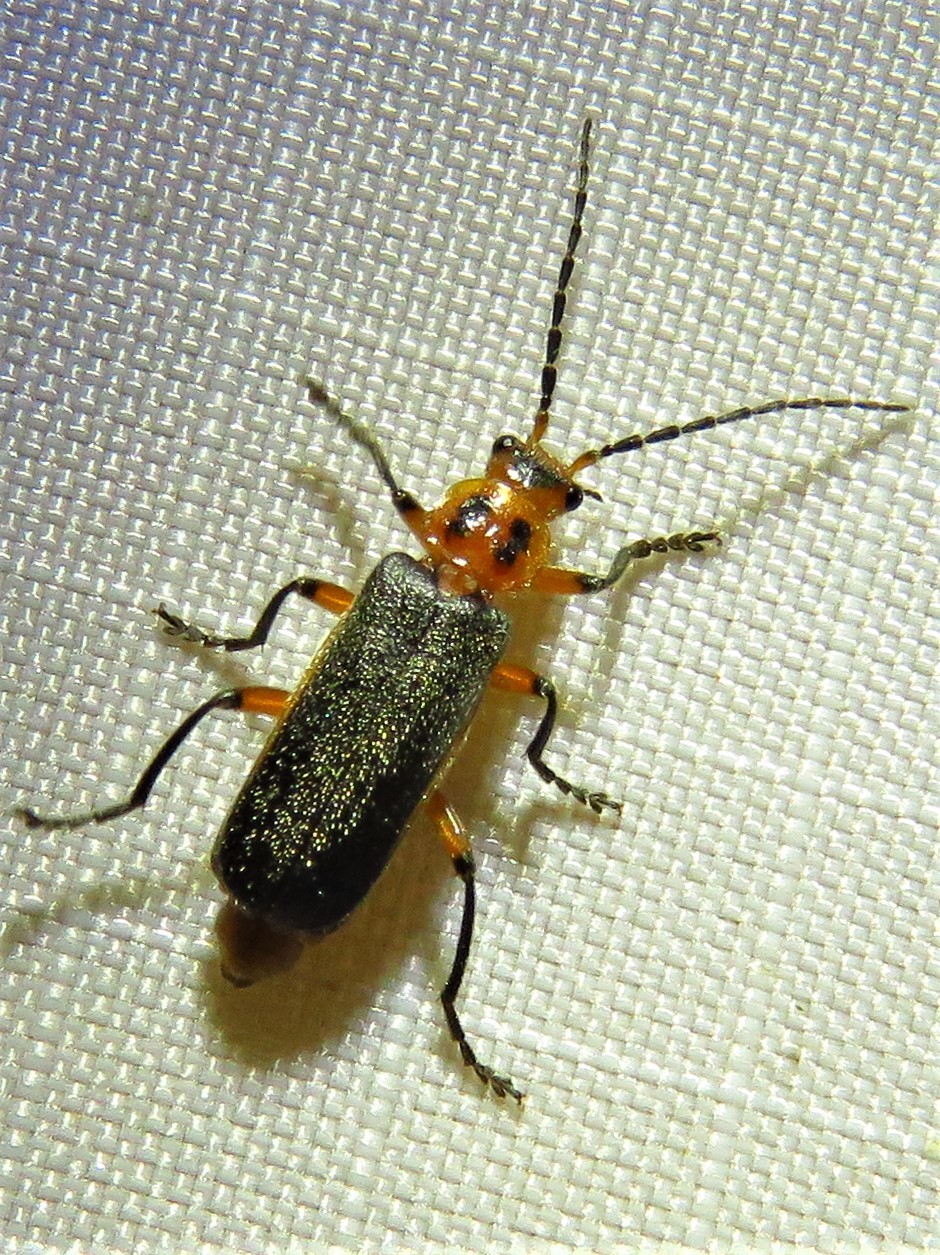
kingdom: Animalia
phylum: Arthropoda
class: Insecta
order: Coleoptera
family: Cantharidae
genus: Atalantycha
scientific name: Atalantycha bilineata
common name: Two-lined leatherwing
